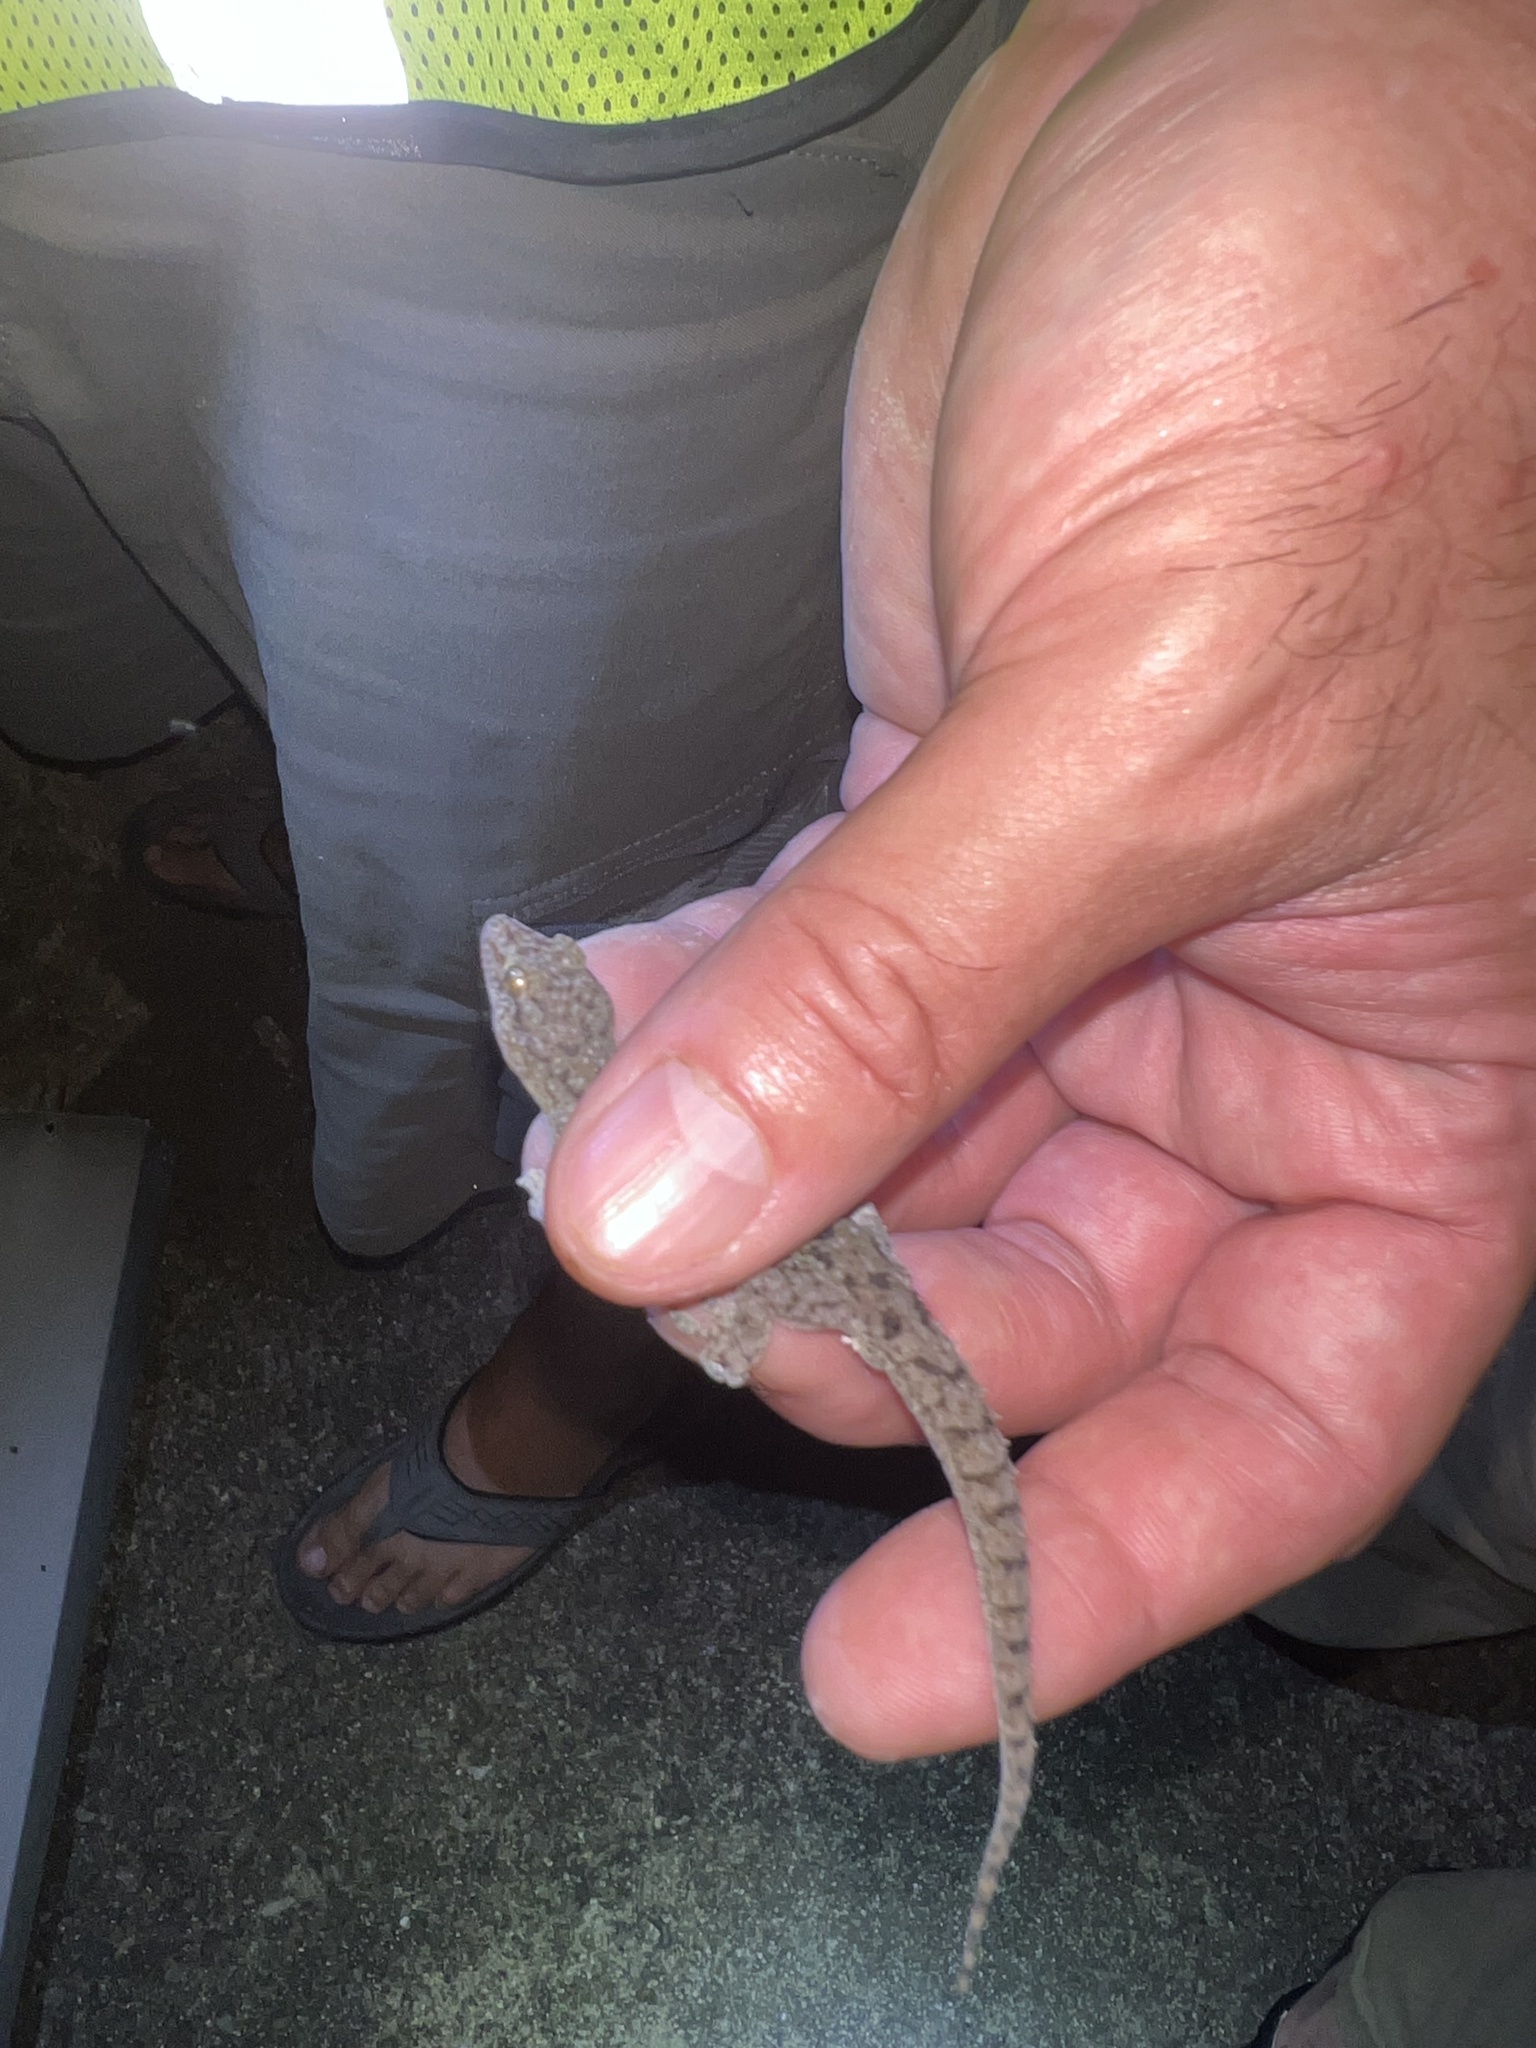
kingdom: Animalia
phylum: Chordata
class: Squamata
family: Gekkonidae
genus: Hemidactylus
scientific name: Hemidactylus parvimaculatus
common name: Spotted house gecko
